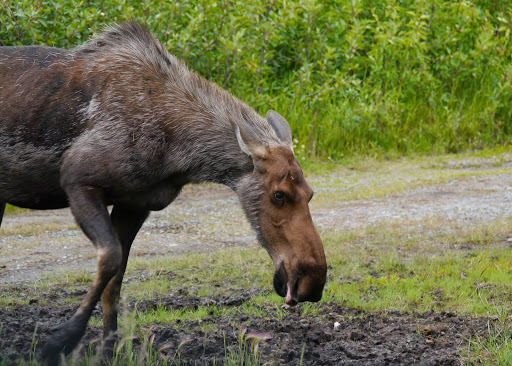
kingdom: Animalia
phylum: Chordata
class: Mammalia
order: Artiodactyla
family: Cervidae
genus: Alces
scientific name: Alces alces
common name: Moose
